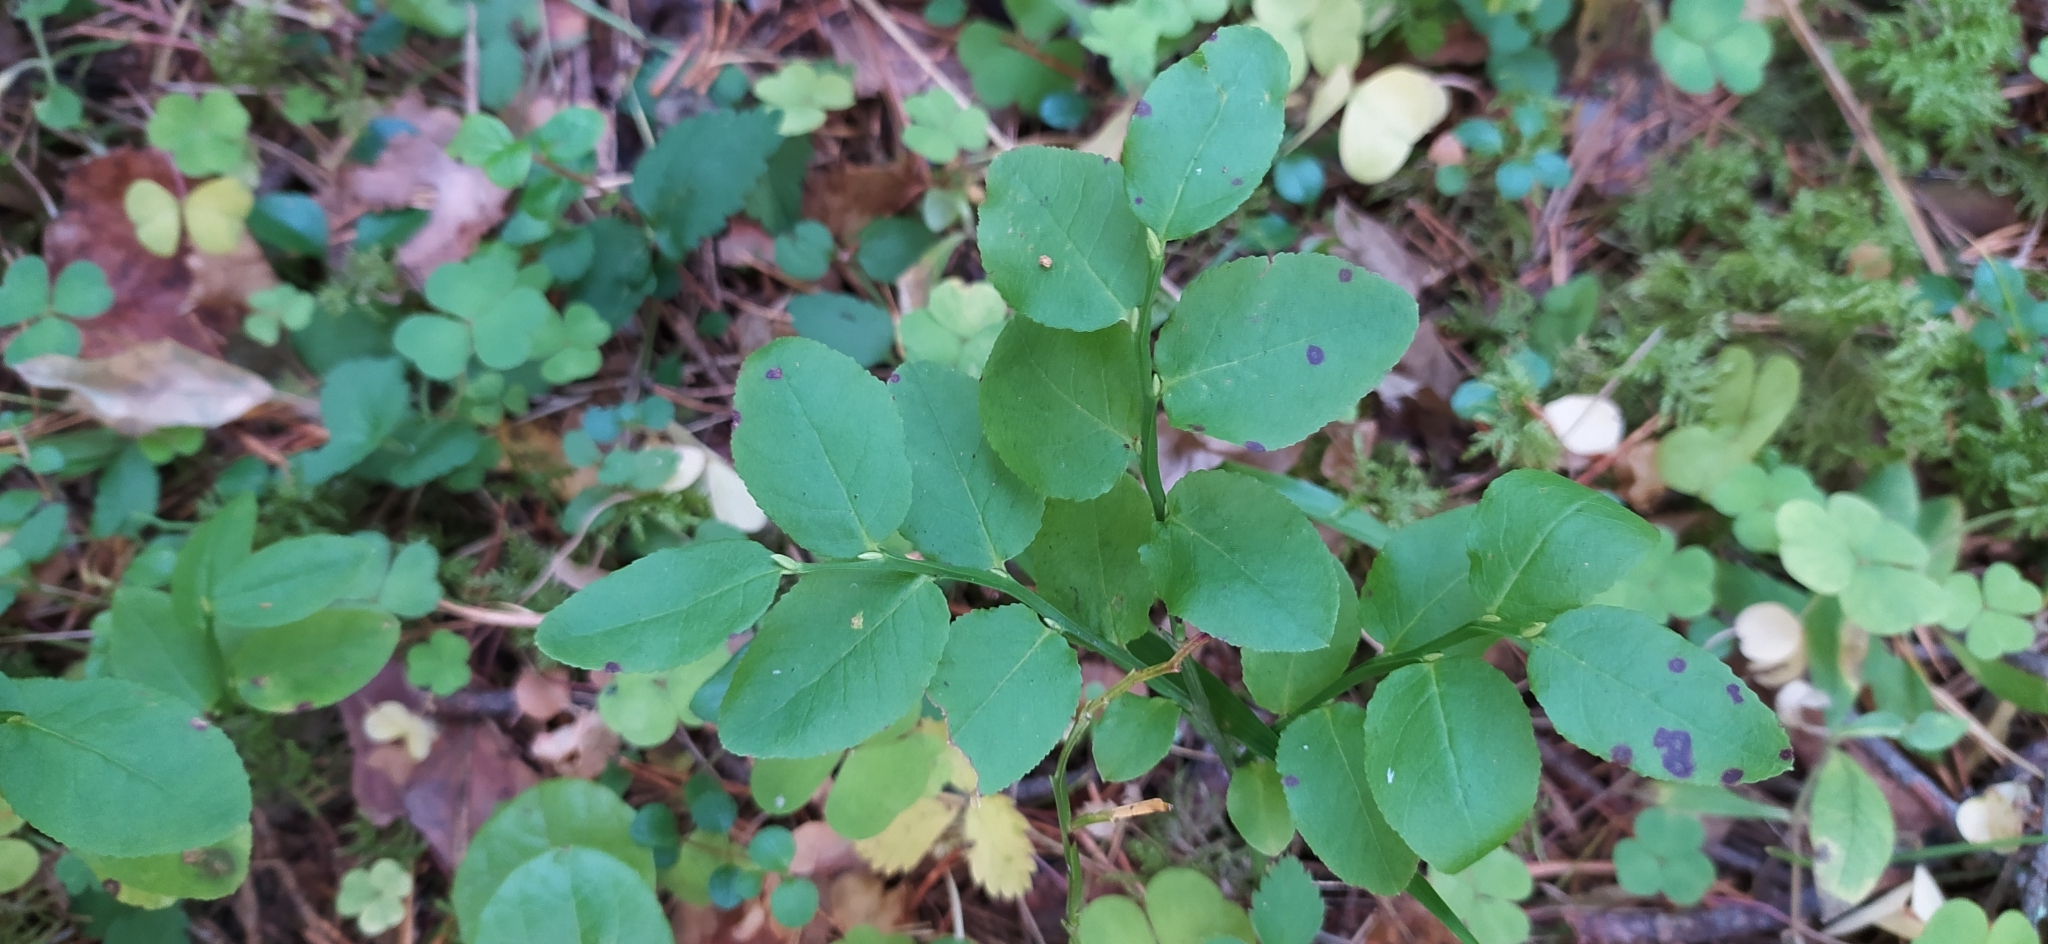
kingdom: Plantae
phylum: Tracheophyta
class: Magnoliopsida
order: Ericales
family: Ericaceae
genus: Vaccinium
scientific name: Vaccinium myrtillus
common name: Bilberry
